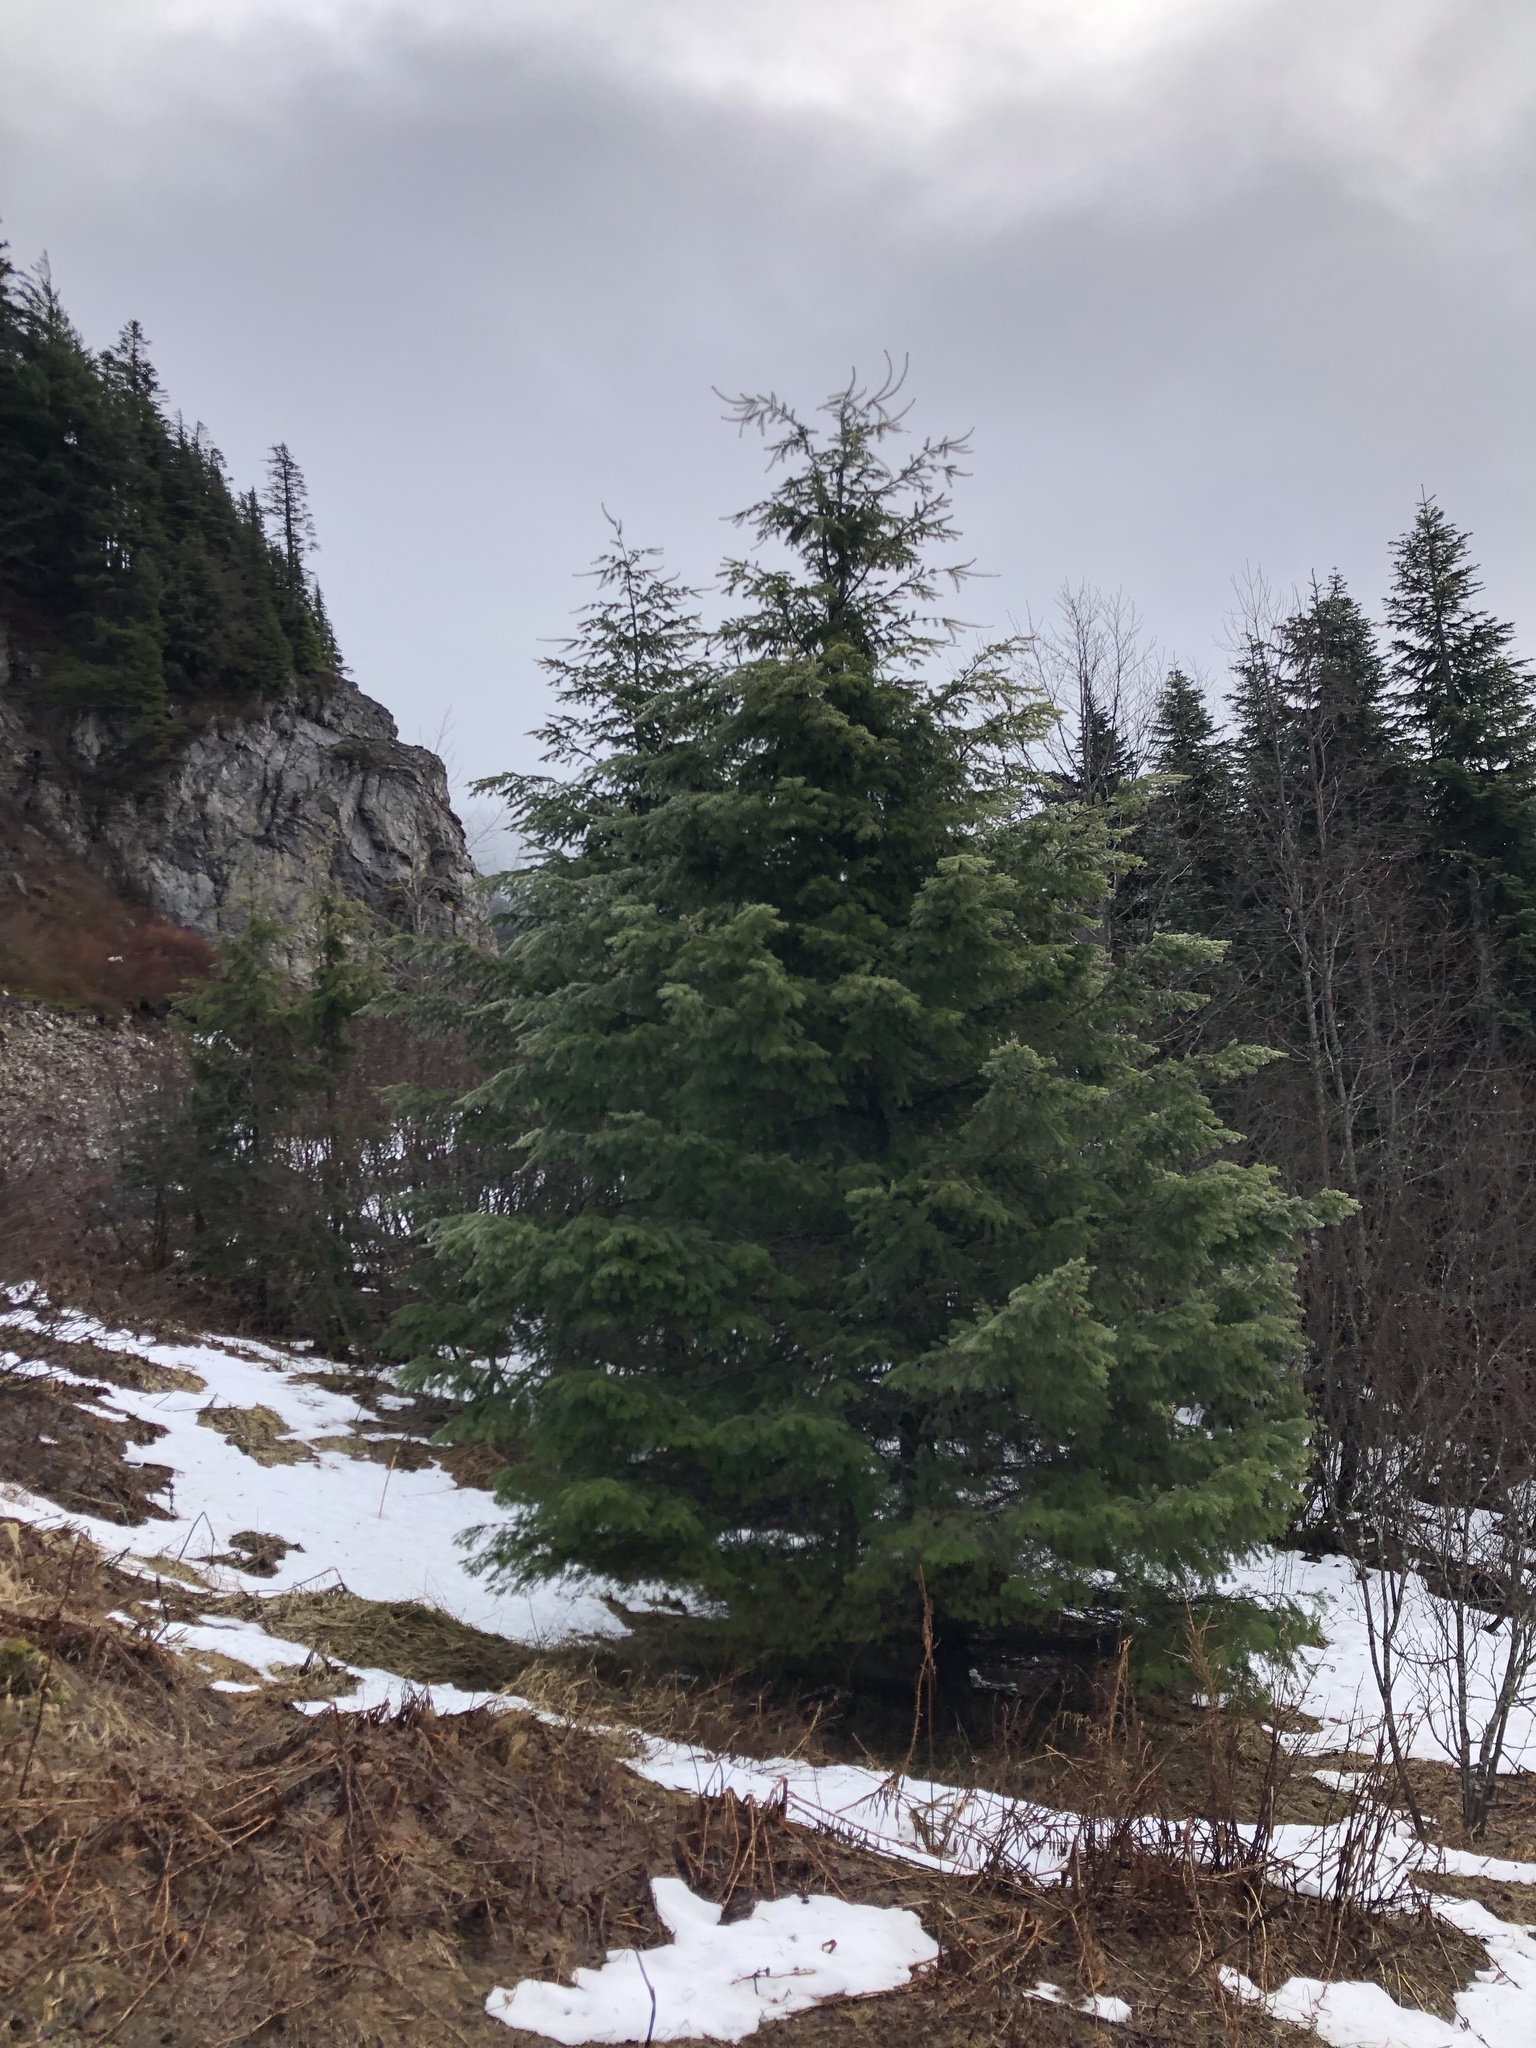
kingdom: Plantae
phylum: Tracheophyta
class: Pinopsida
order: Pinales
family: Pinaceae
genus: Pseudotsuga
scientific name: Pseudotsuga menziesii
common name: Douglas fir
